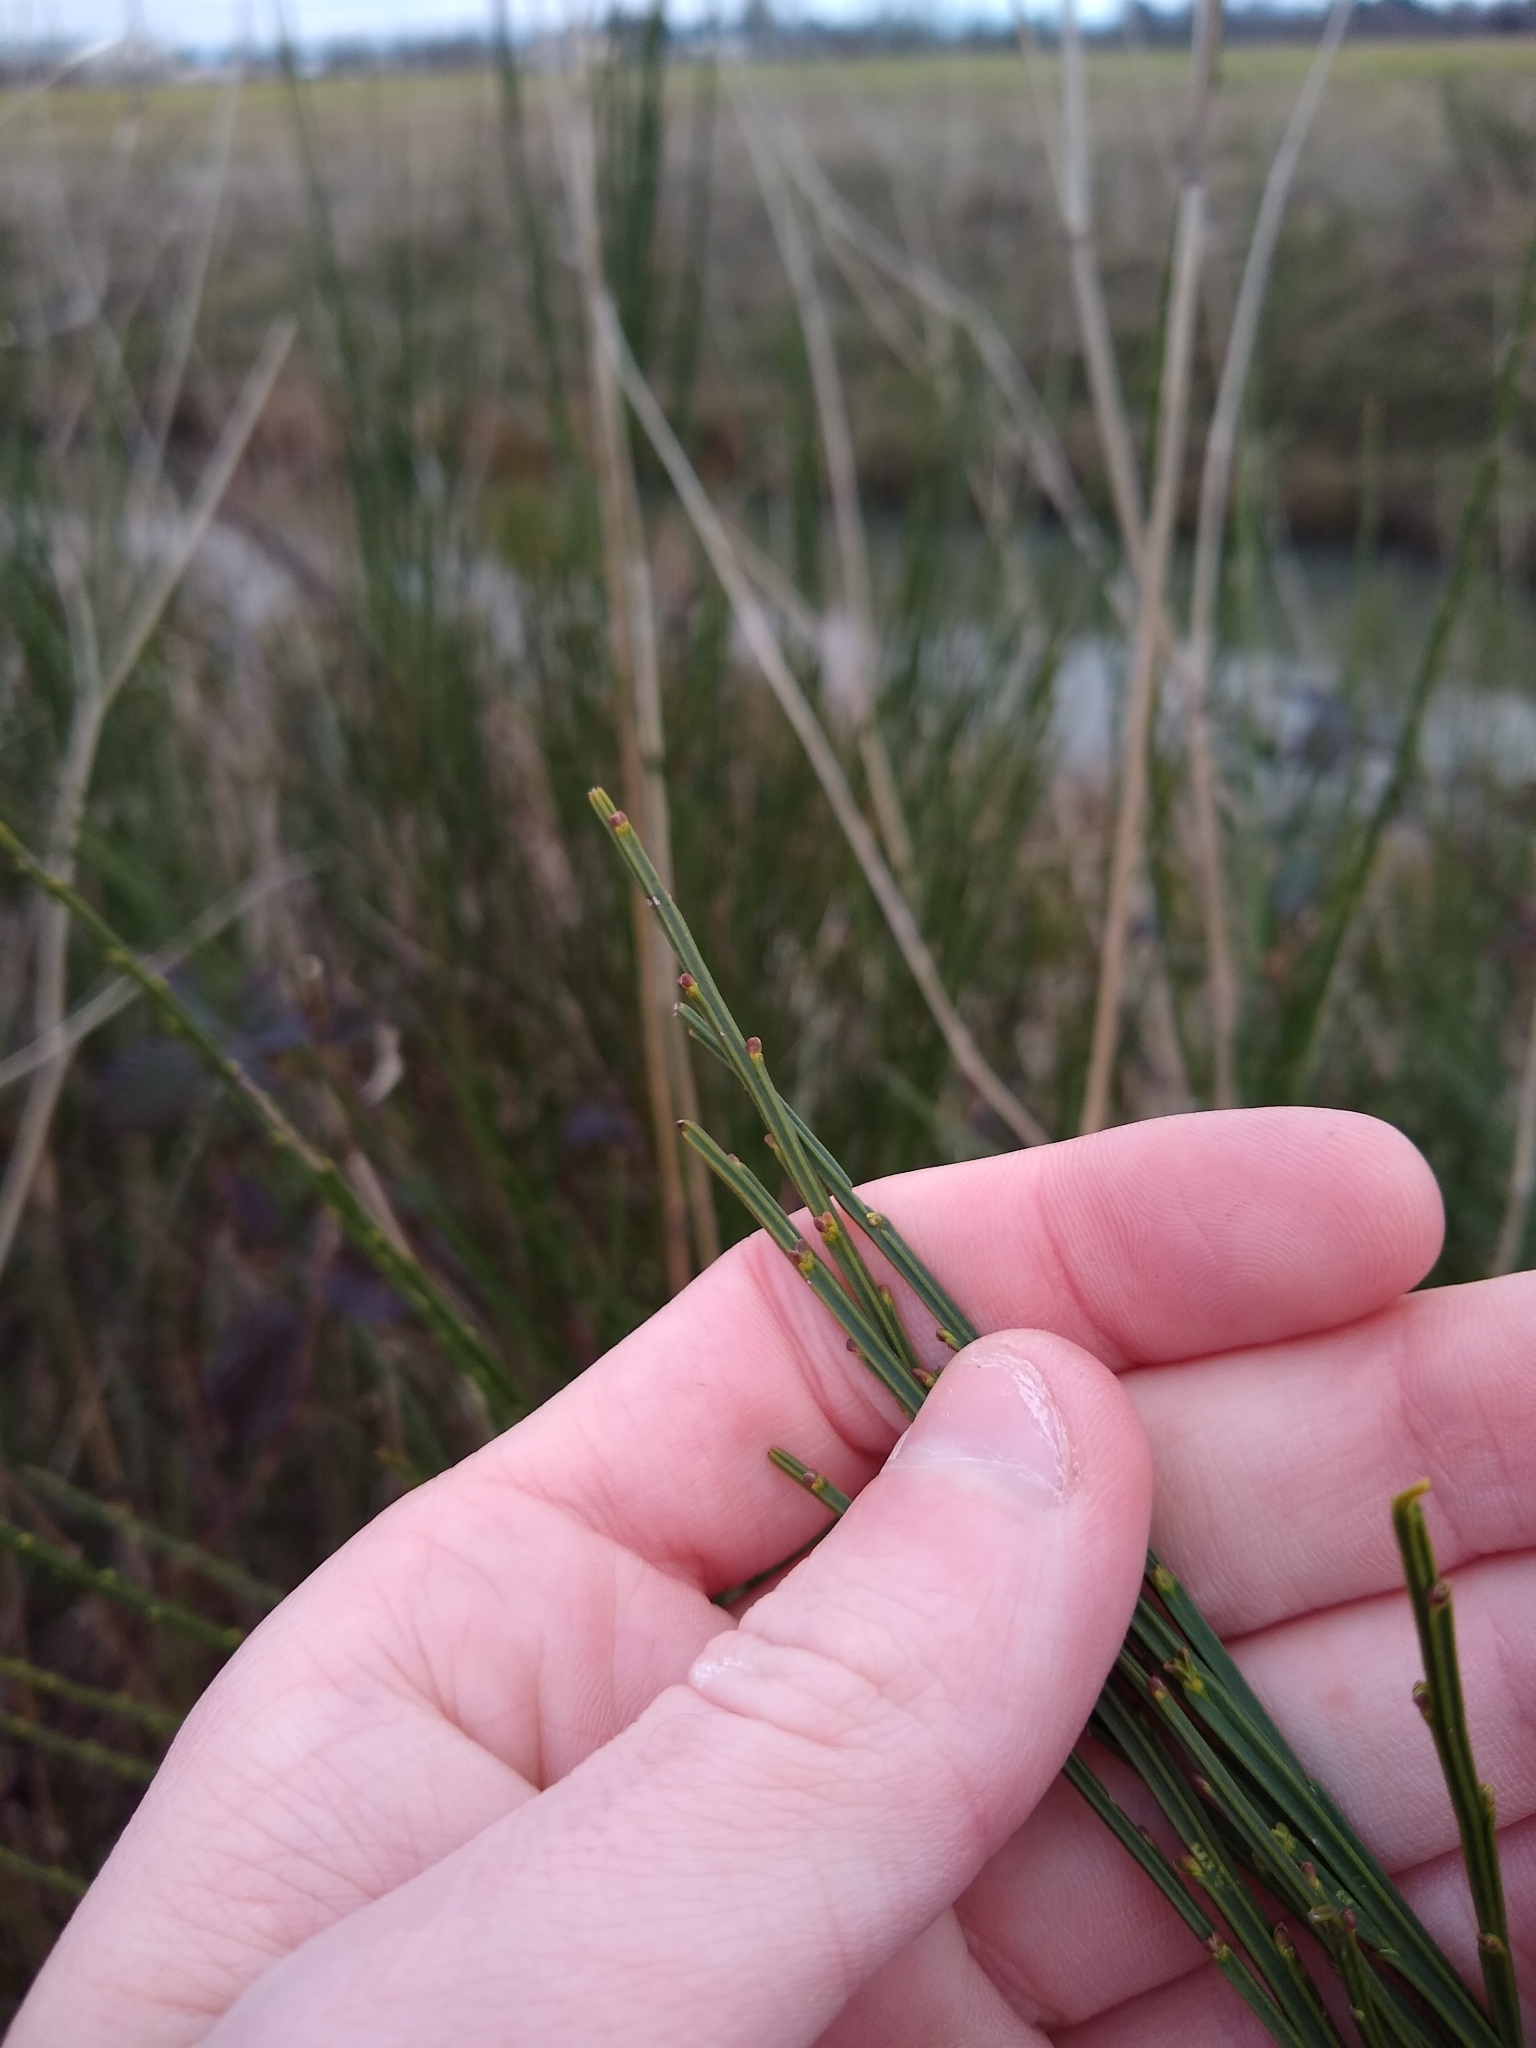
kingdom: Plantae
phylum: Tracheophyta
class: Magnoliopsida
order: Fabales
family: Fabaceae
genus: Cytisus
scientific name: Cytisus scoparius
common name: Scotch broom
